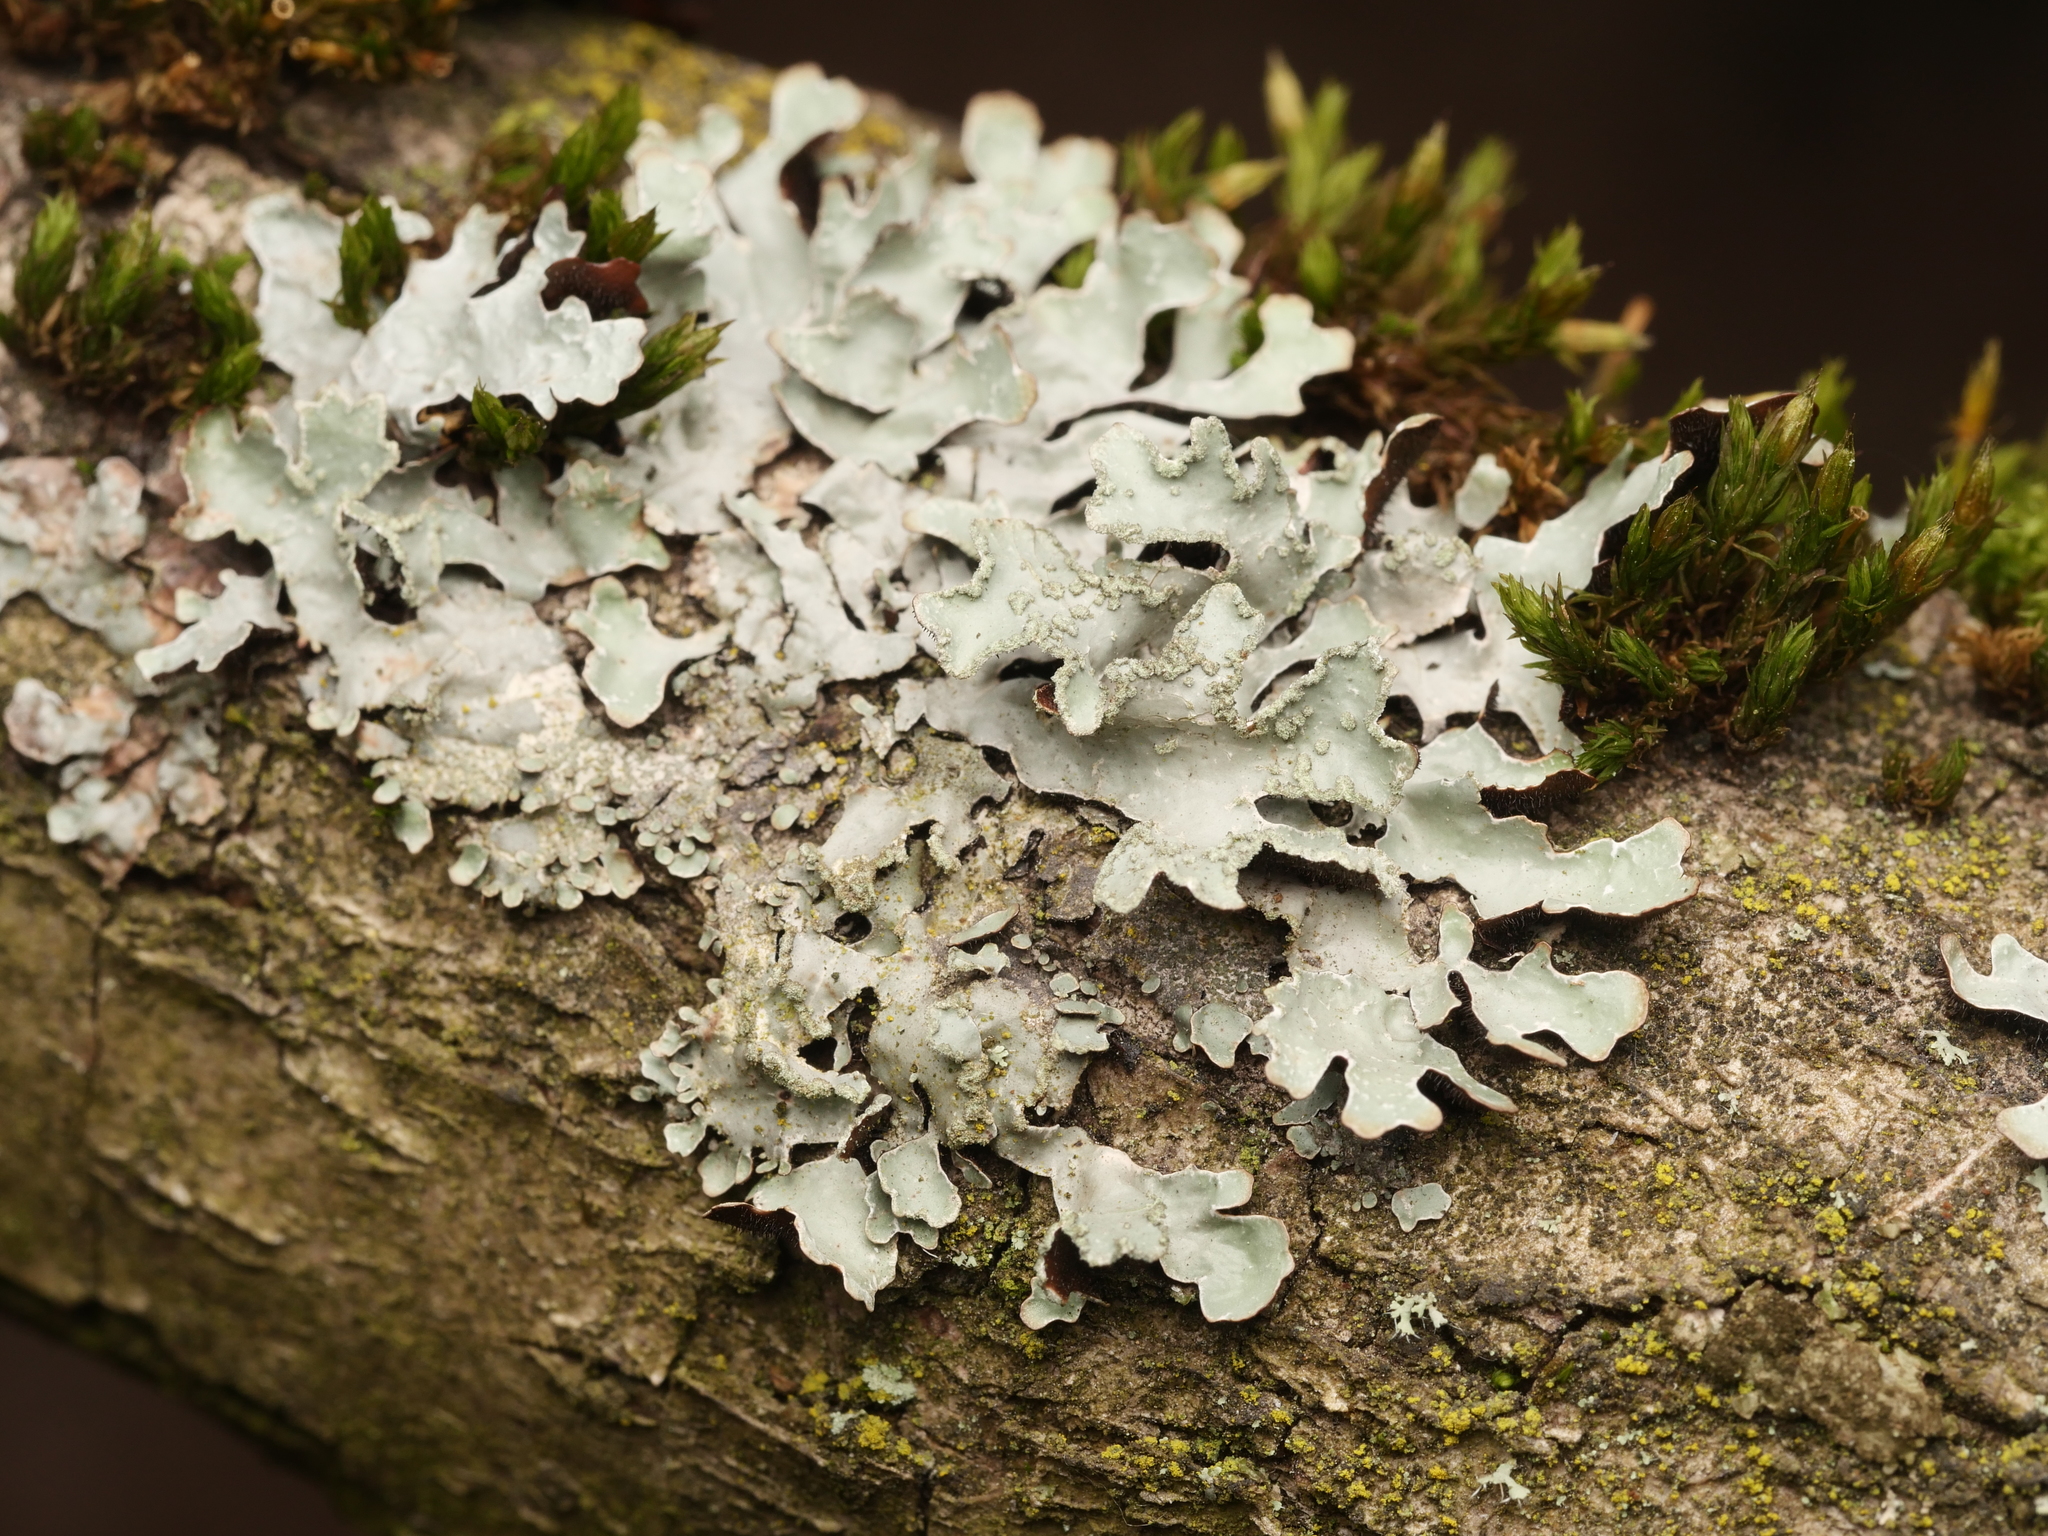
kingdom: Fungi
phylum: Ascomycota
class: Lecanoromycetes
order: Lecanorales
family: Parmeliaceae
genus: Parmelia
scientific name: Parmelia sulcata
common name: Netted shield lichen
